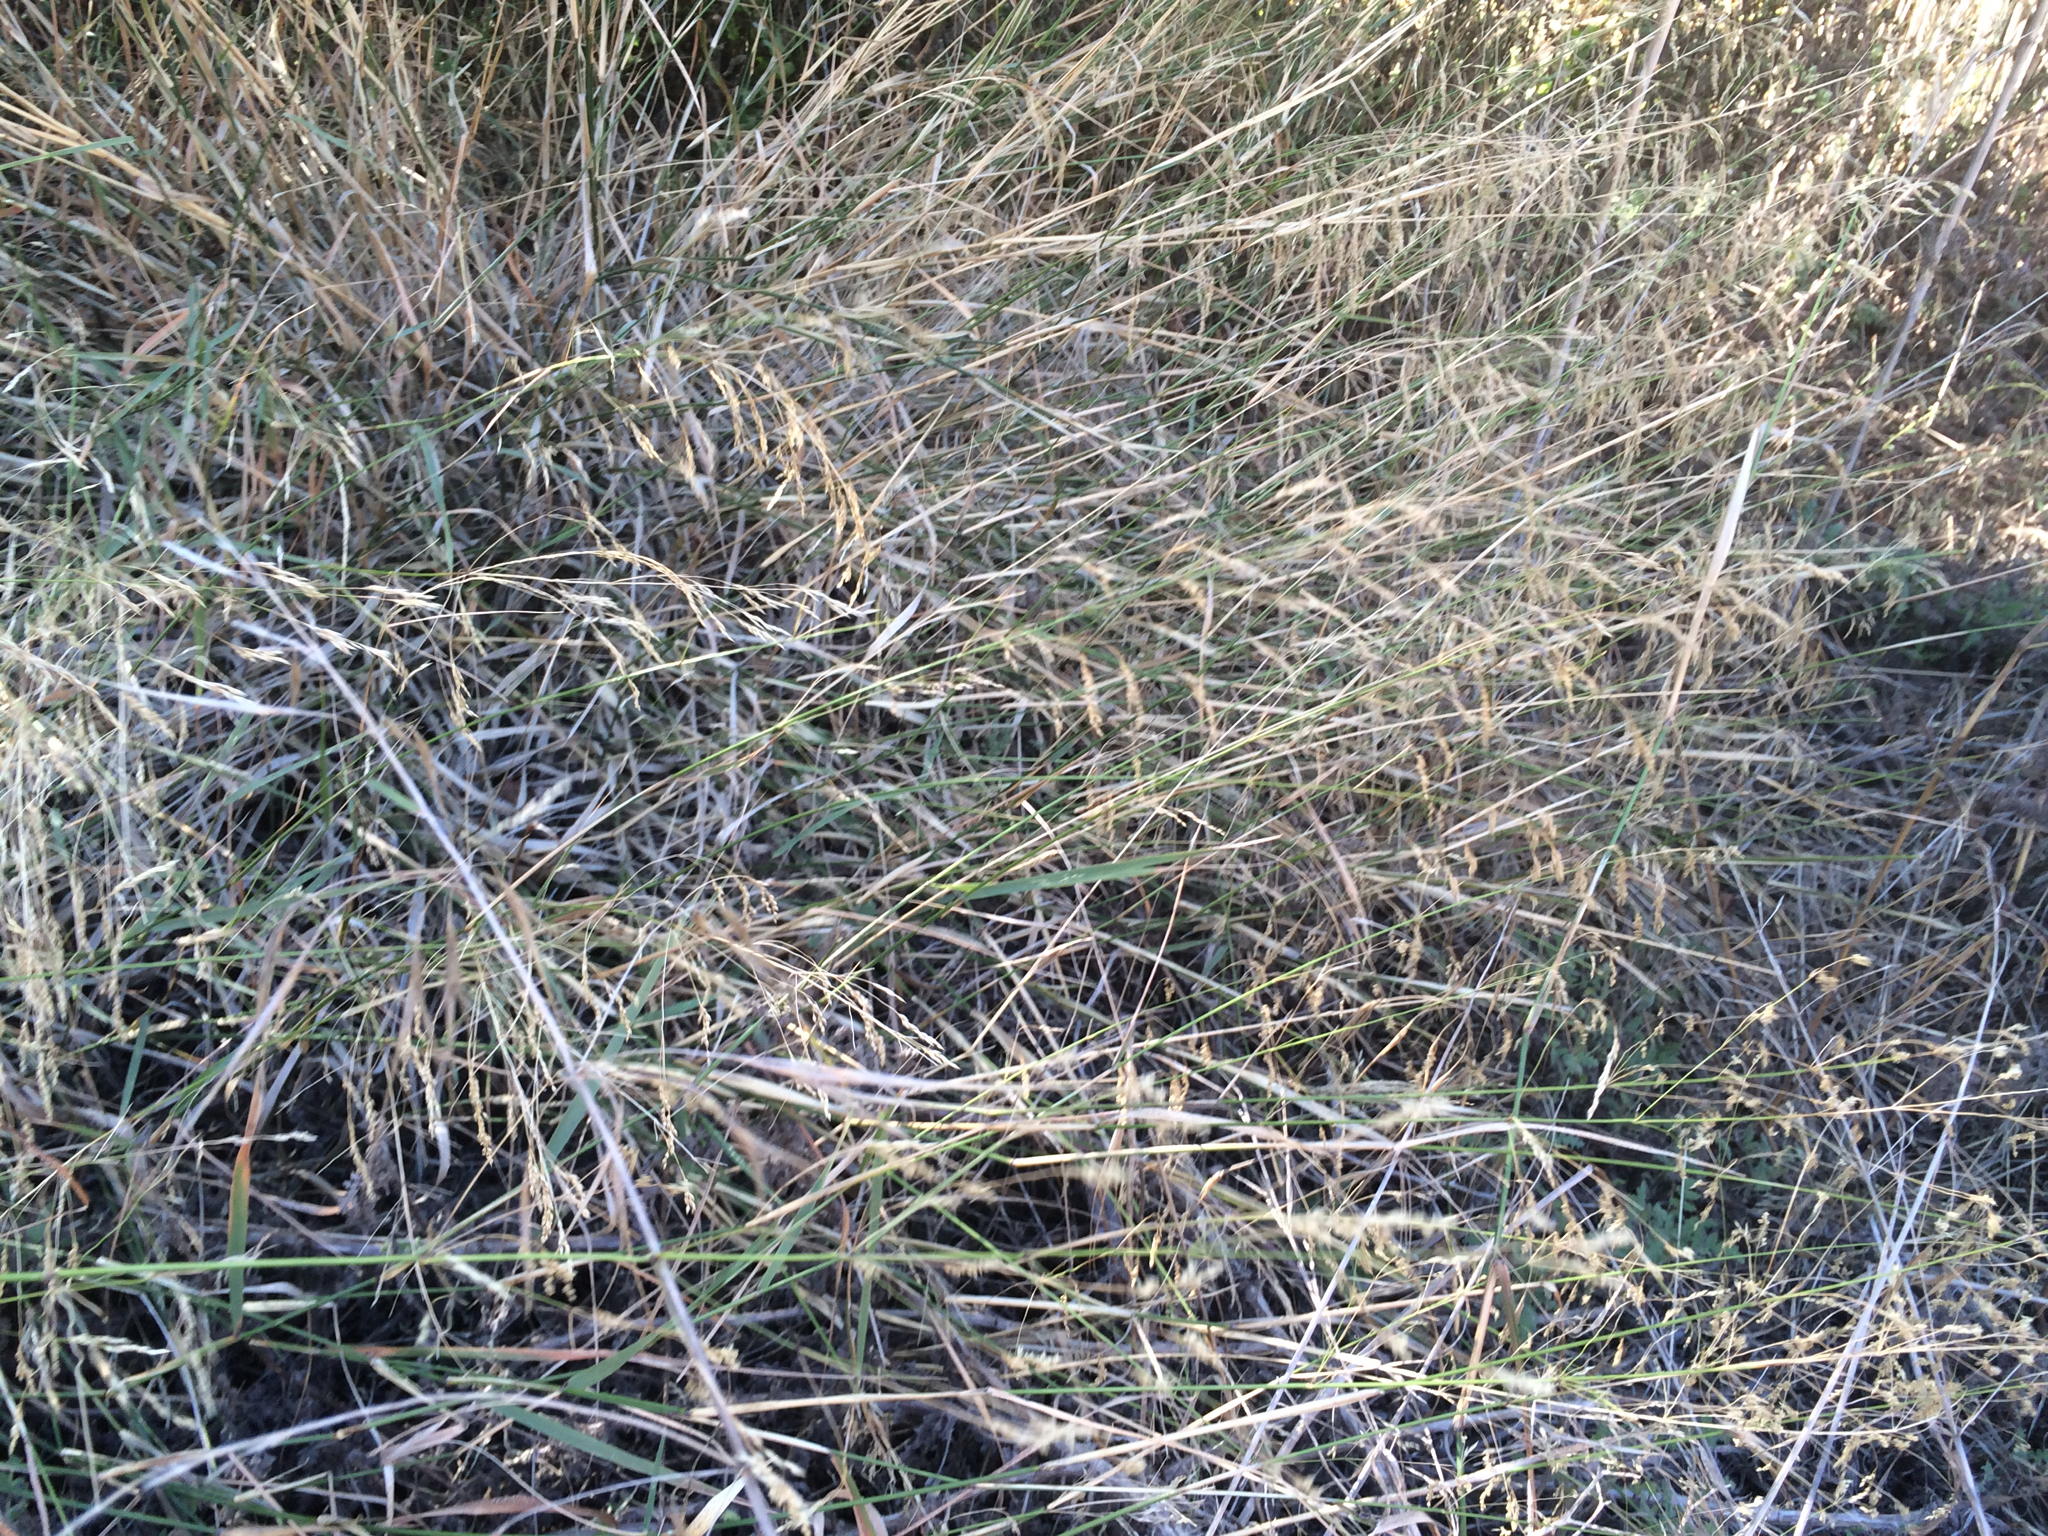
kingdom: Plantae
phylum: Tracheophyta
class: Liliopsida
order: Poales
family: Poaceae
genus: Oloptum
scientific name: Oloptum miliaceum
